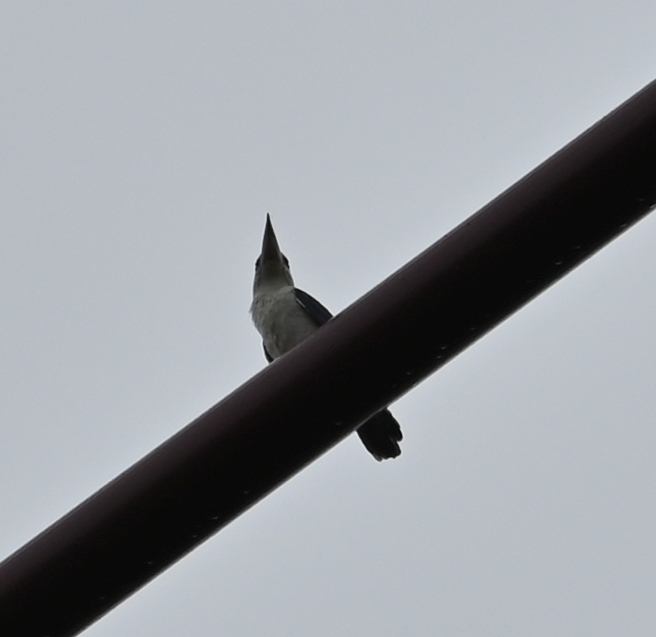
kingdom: Animalia
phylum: Chordata
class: Aves
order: Coraciiformes
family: Alcedinidae
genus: Todiramphus
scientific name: Todiramphus chloris
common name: Collared kingfisher
